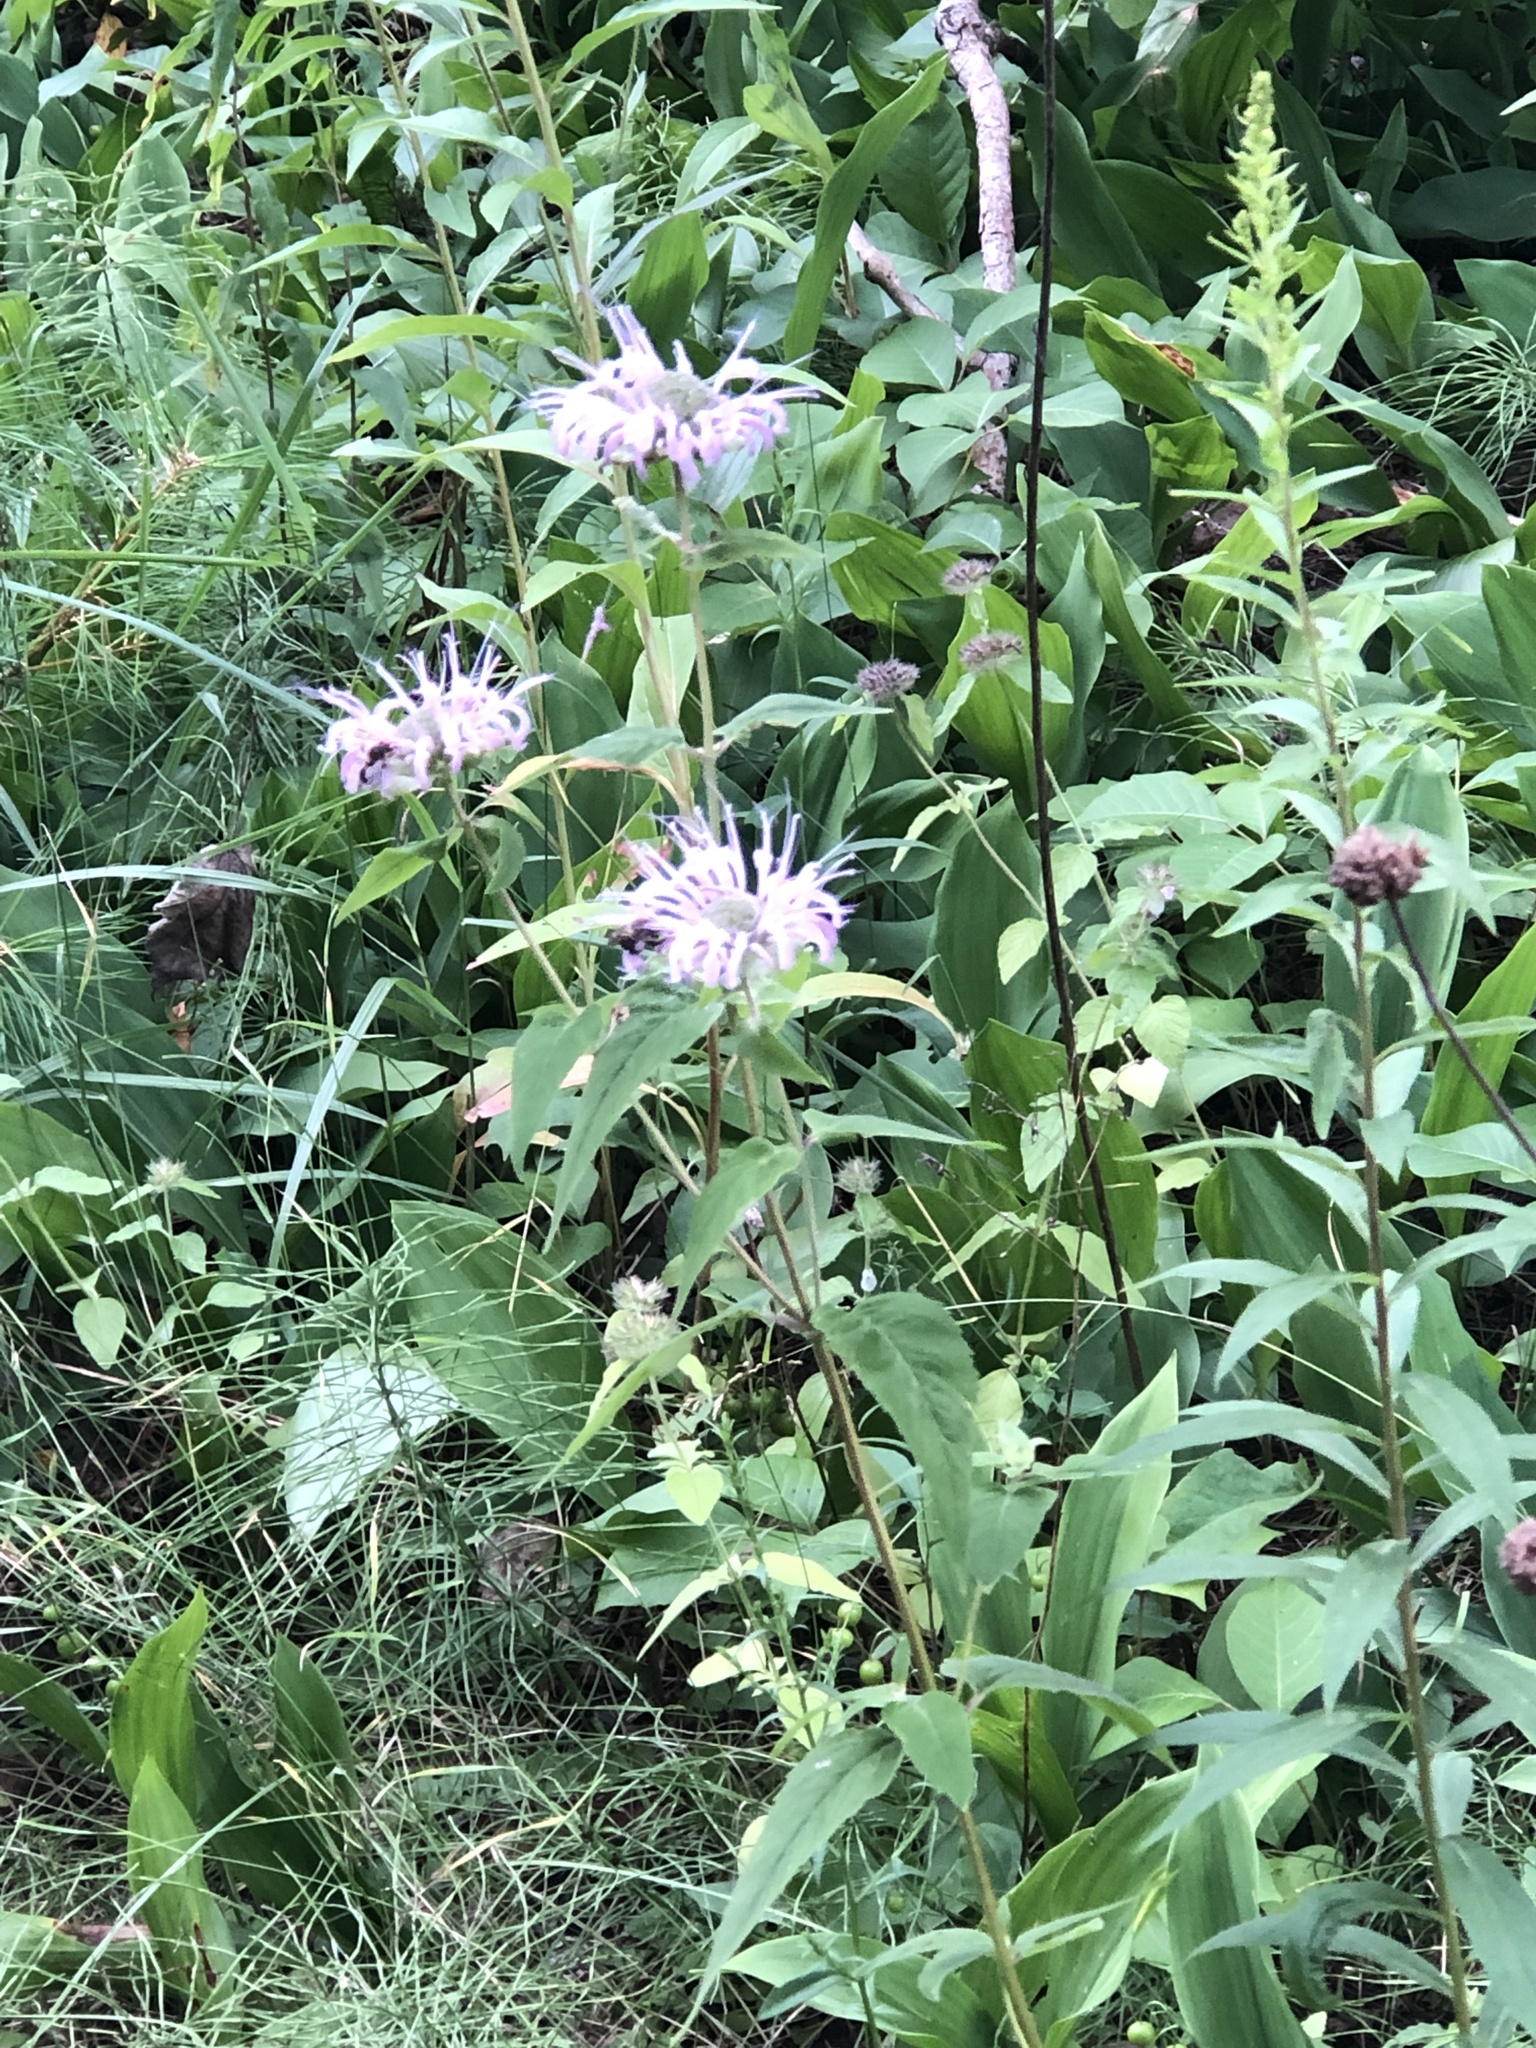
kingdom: Plantae
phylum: Tracheophyta
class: Magnoliopsida
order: Lamiales
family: Lamiaceae
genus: Monarda
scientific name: Monarda fistulosa
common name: Purple beebalm
